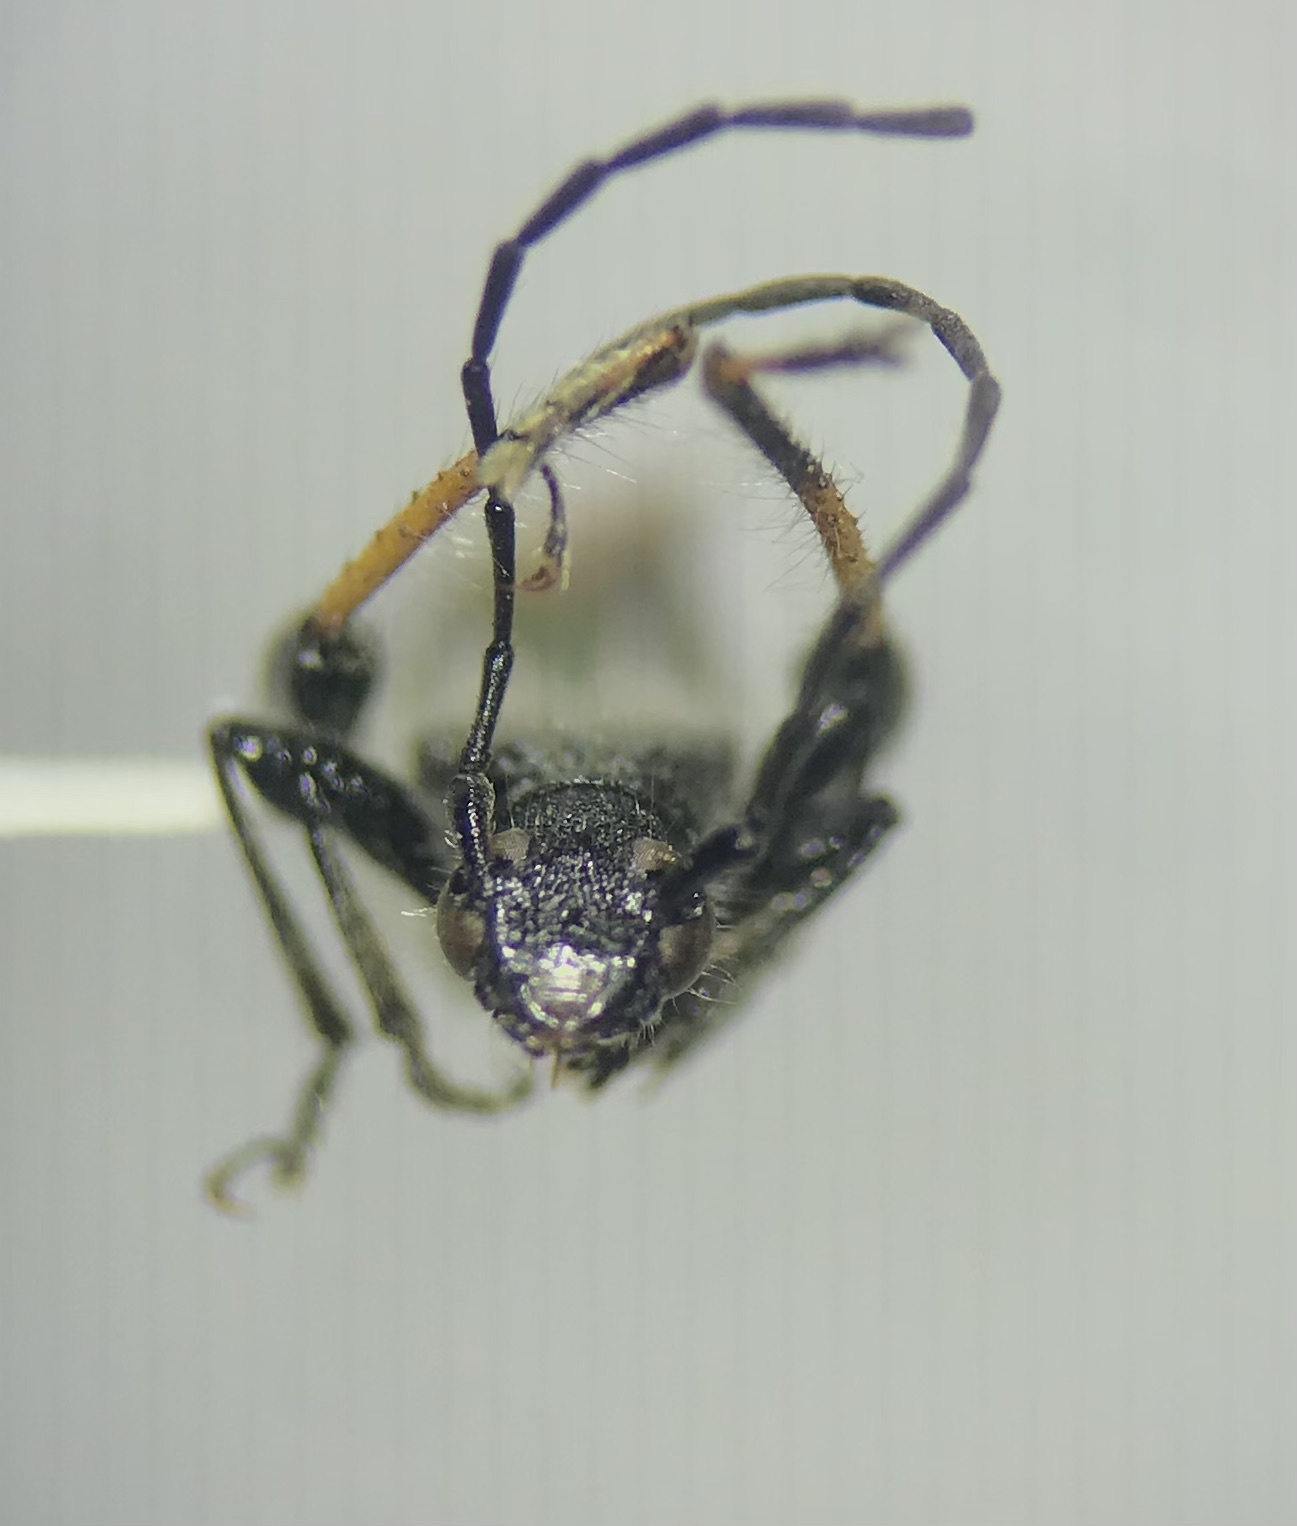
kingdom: Animalia
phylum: Arthropoda
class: Insecta
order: Coleoptera
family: Cerambycidae
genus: Callimoxys
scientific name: Callimoxys fuscipennis
